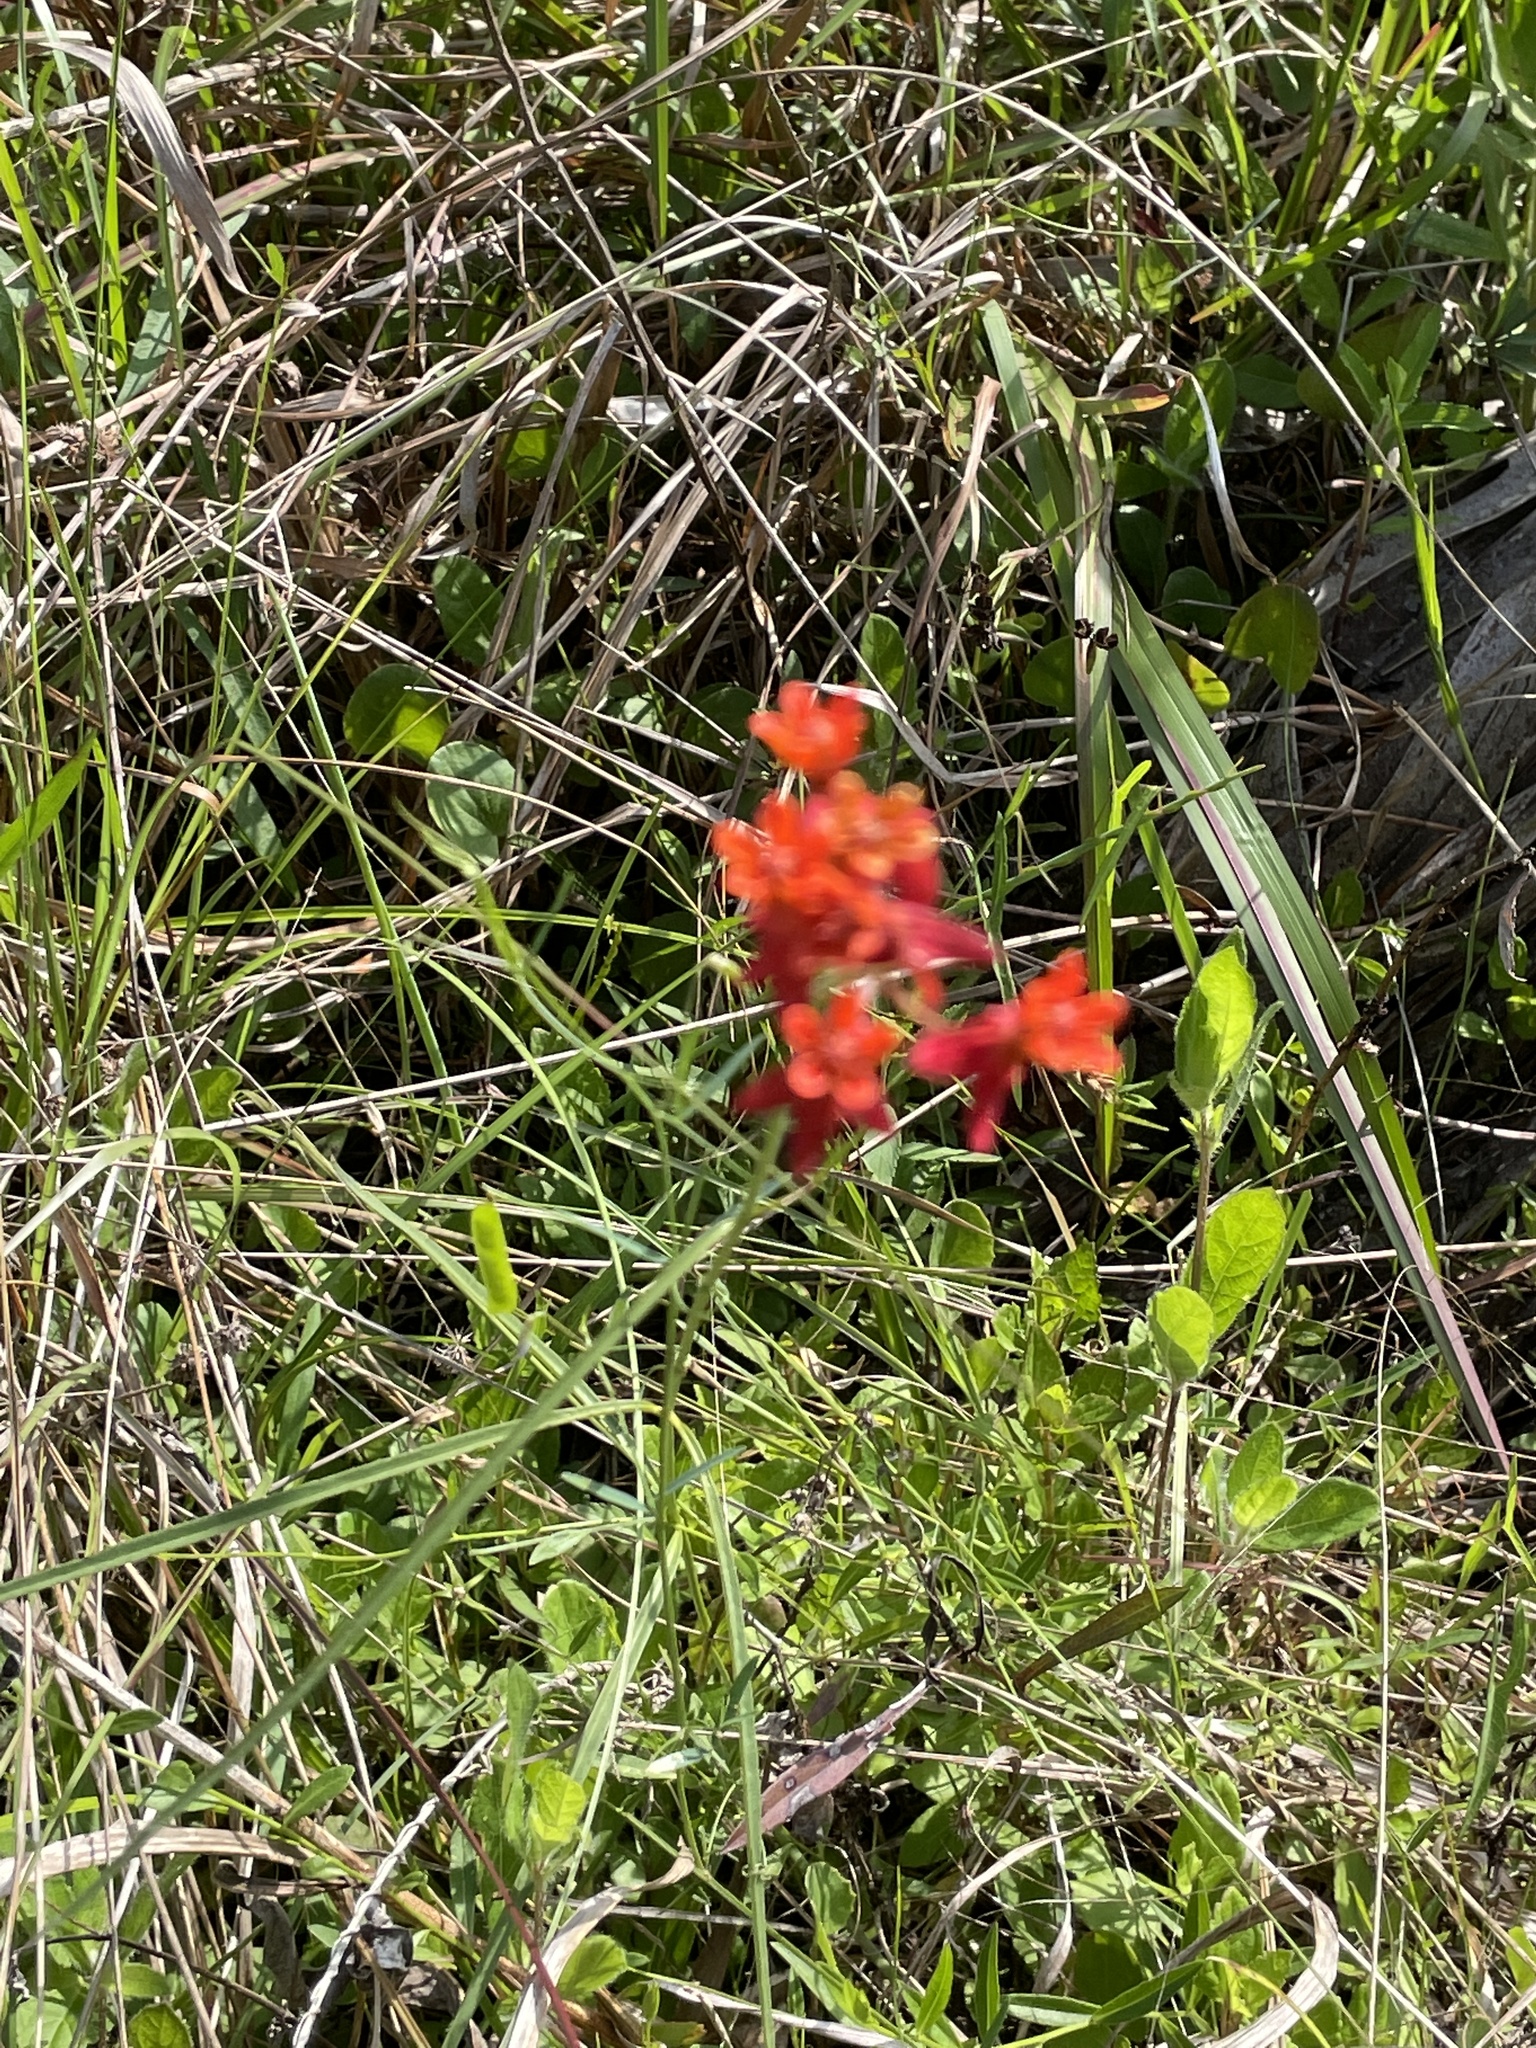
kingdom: Plantae
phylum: Tracheophyta
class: Magnoliopsida
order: Gentianales
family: Apocynaceae
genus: Asclepias
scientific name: Asclepias lanceolata
